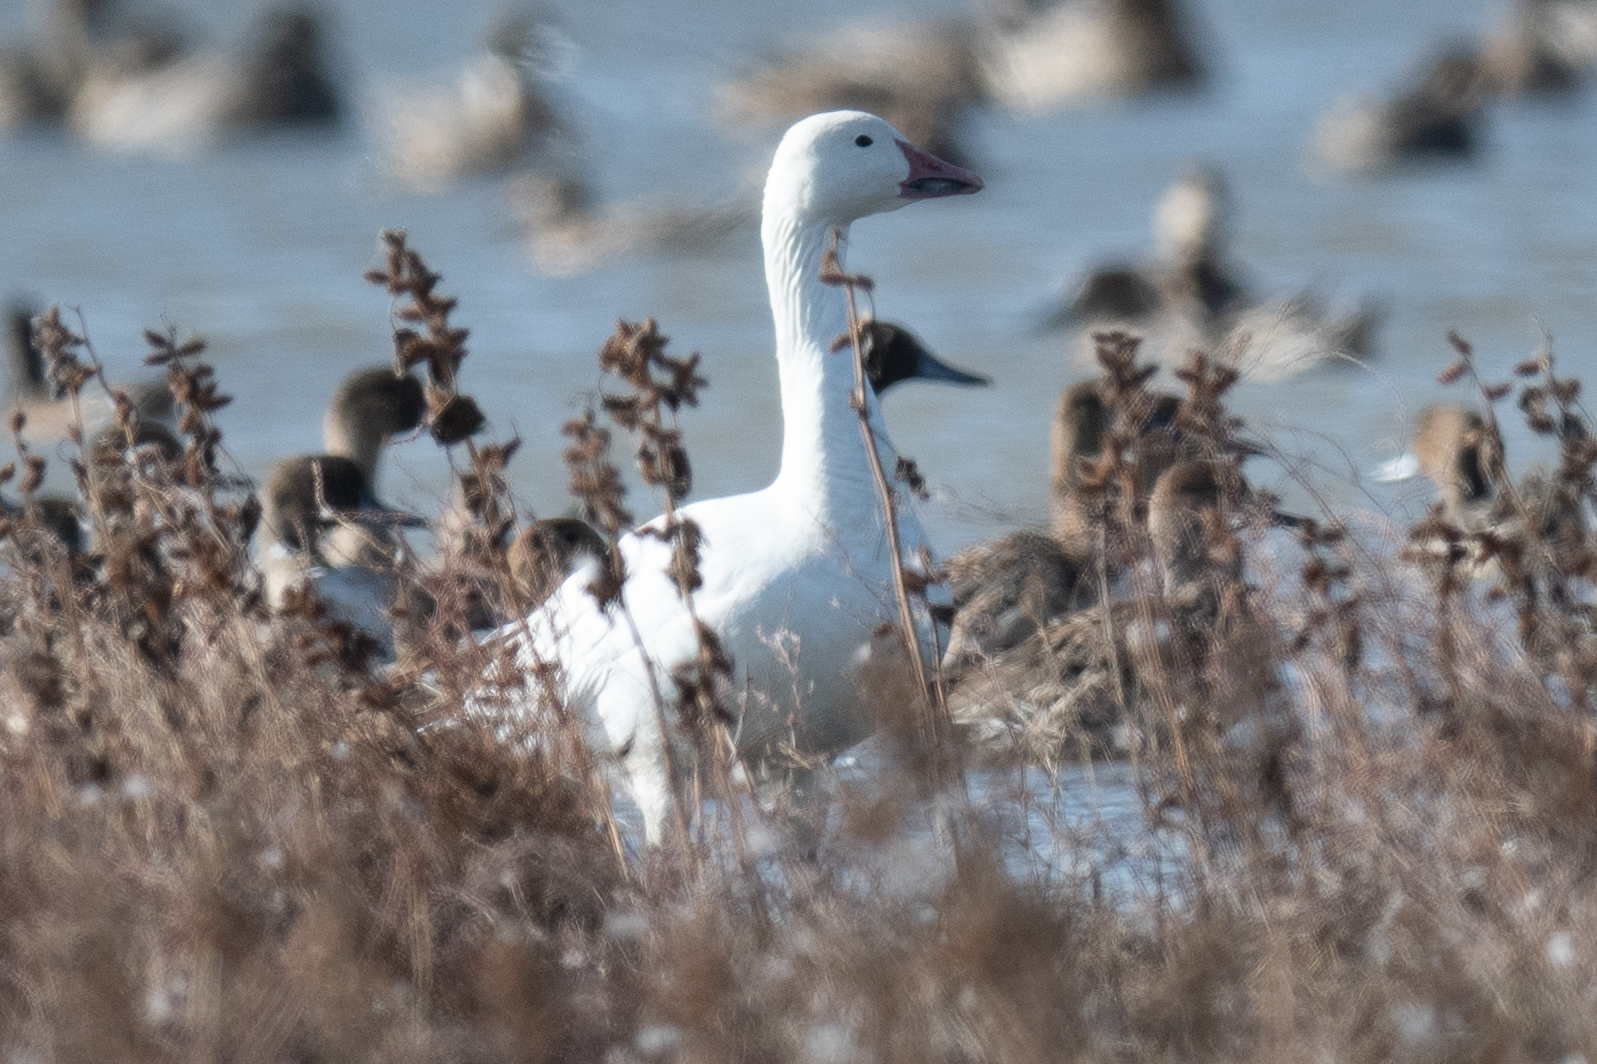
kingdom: Animalia
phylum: Chordata
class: Aves
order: Anseriformes
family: Anatidae
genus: Anser
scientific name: Anser caerulescens
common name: Snow goose
